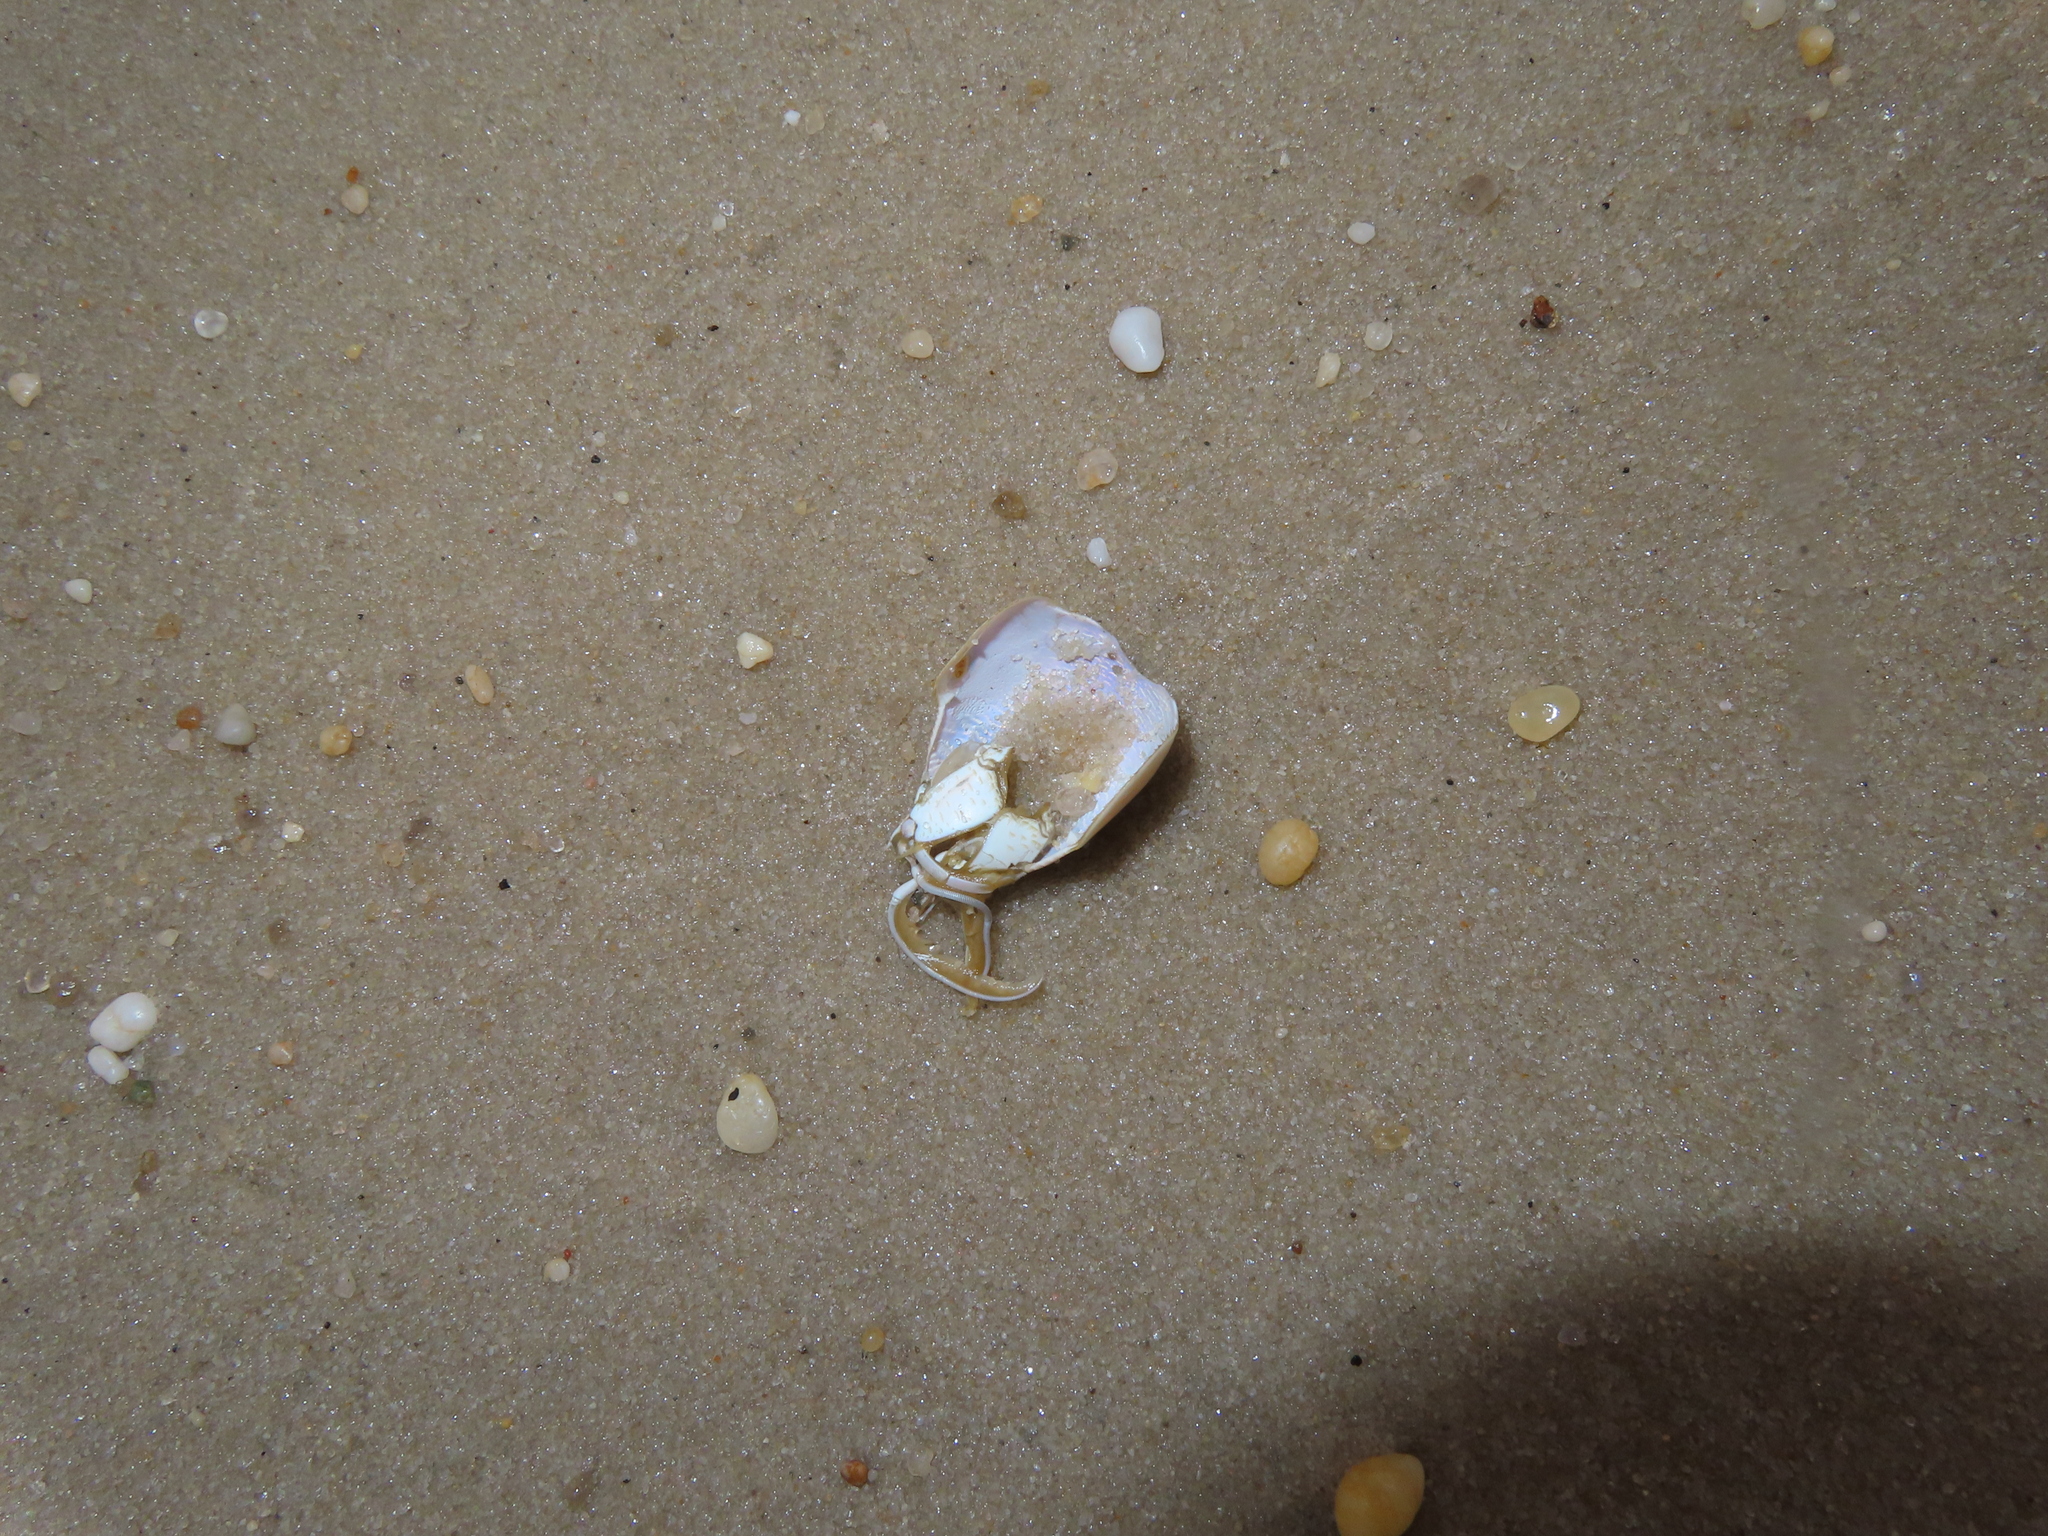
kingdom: Animalia
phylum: Arthropoda
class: Malacostraca
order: Decapoda
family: Hippidae
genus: Emerita
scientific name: Emerita talpoida
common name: Atlantic sand crab
